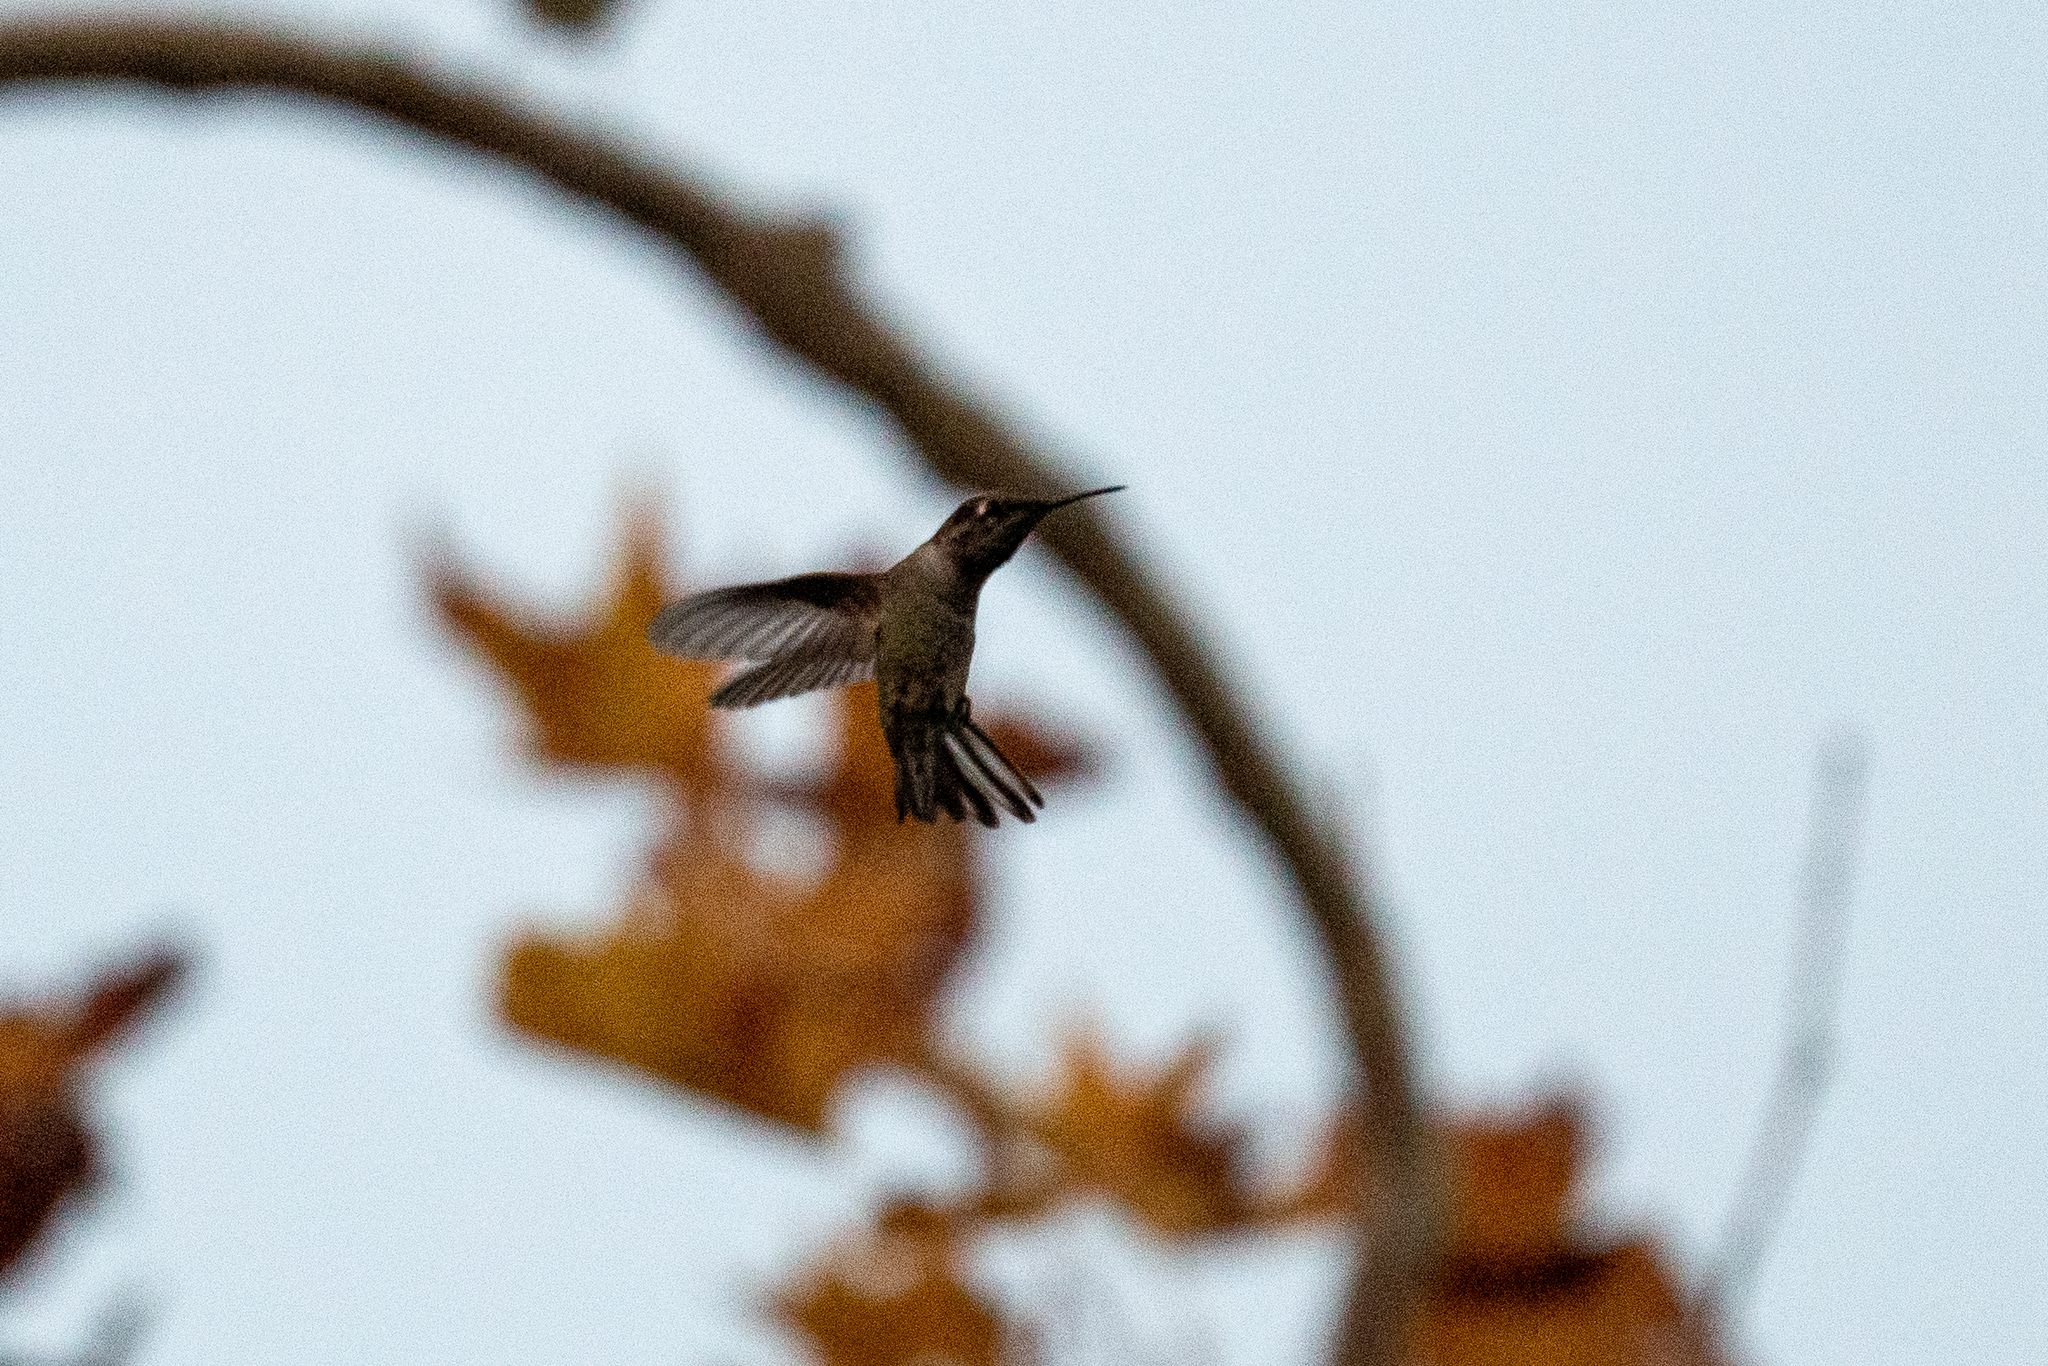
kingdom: Animalia
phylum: Chordata
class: Aves
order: Apodiformes
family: Trochilidae
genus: Calypte
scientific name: Calypte anna
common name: Anna's hummingbird
